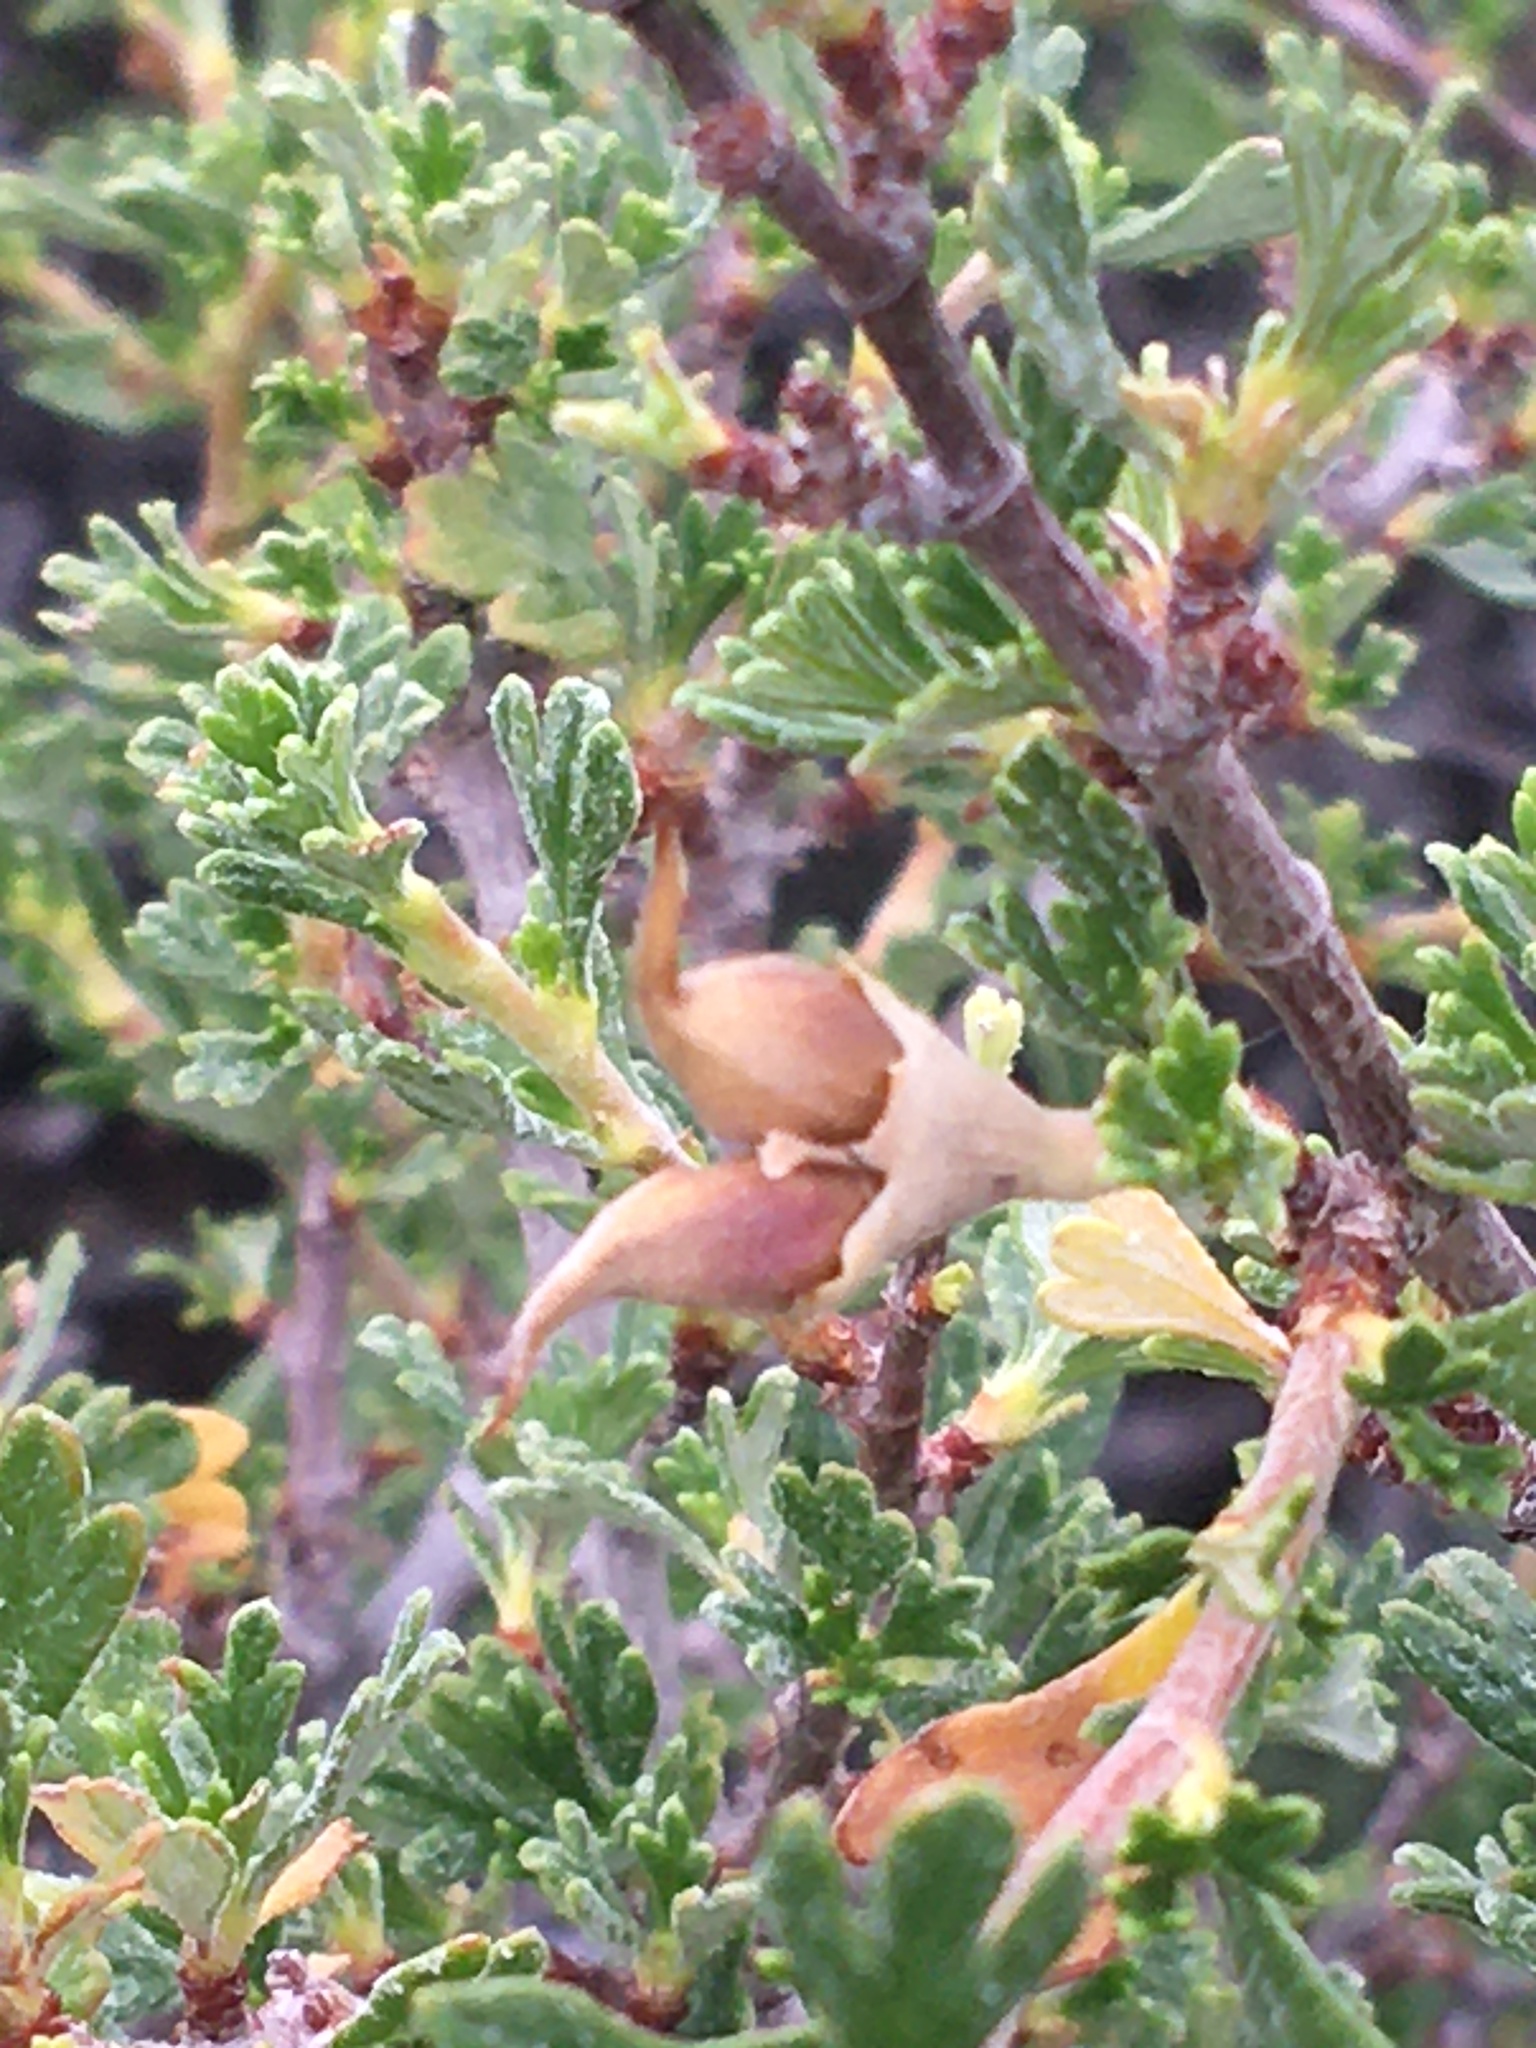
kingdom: Plantae
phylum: Tracheophyta
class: Magnoliopsida
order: Rosales
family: Rosaceae
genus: Purshia
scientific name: Purshia tridentata
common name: Antelope bitterbrush
